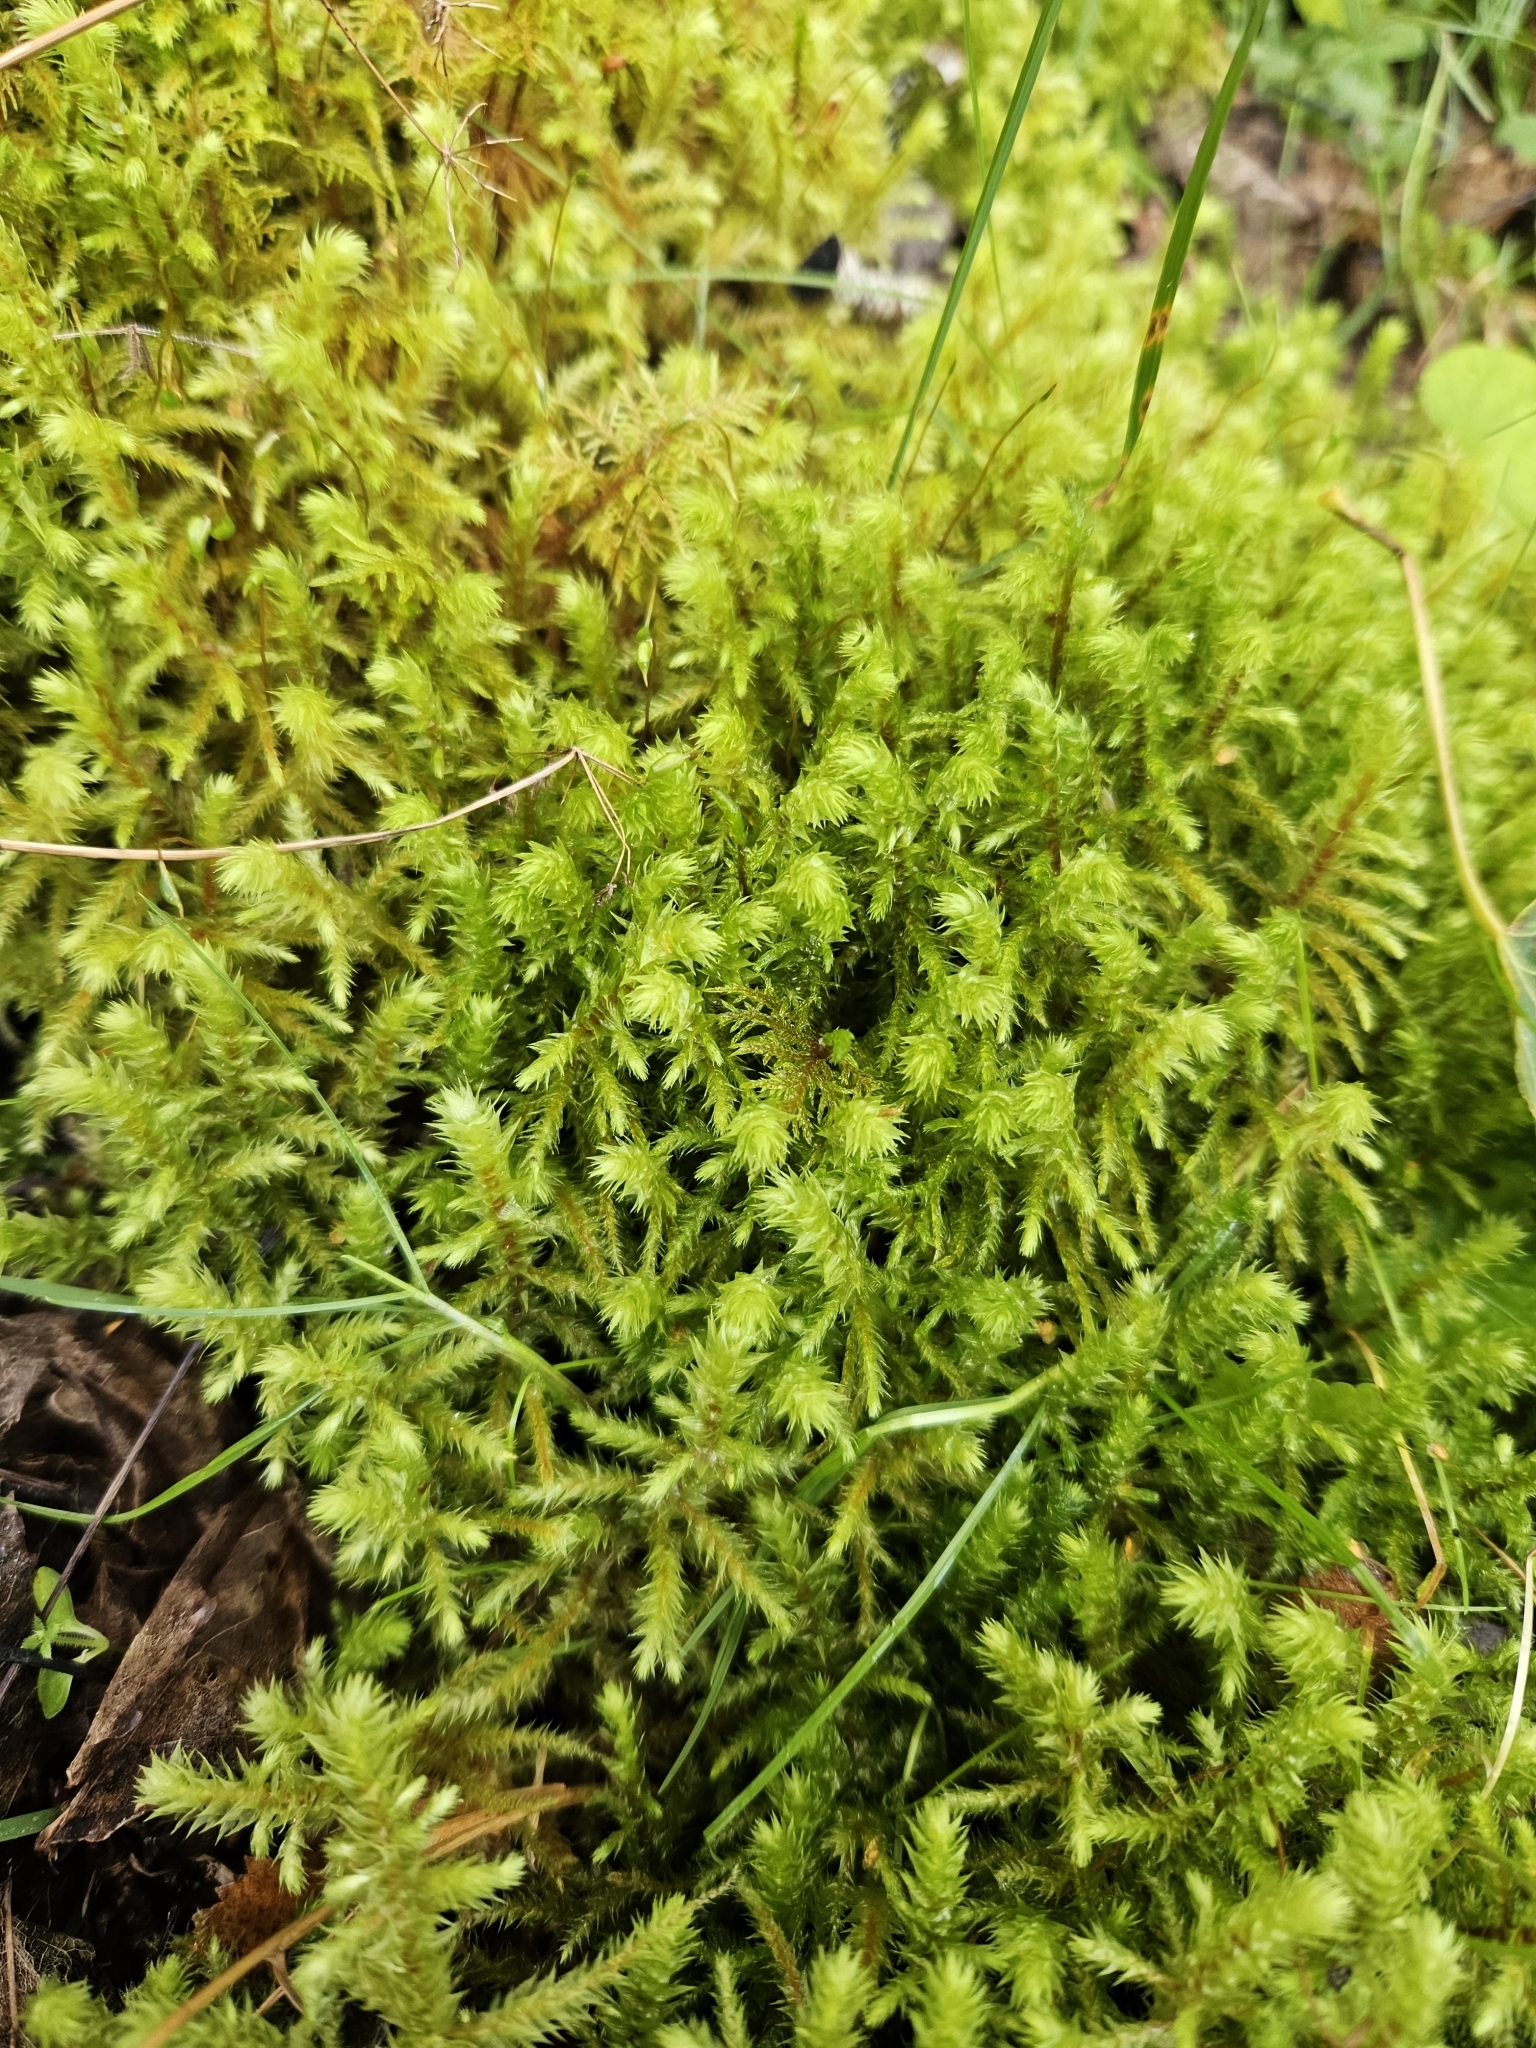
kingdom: Plantae
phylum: Bryophyta
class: Bryopsida
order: Hypnales
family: Hylocomiaceae
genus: Hylocomiadelphus
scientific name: Hylocomiadelphus triquetrus
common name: Rough goose neck moss
